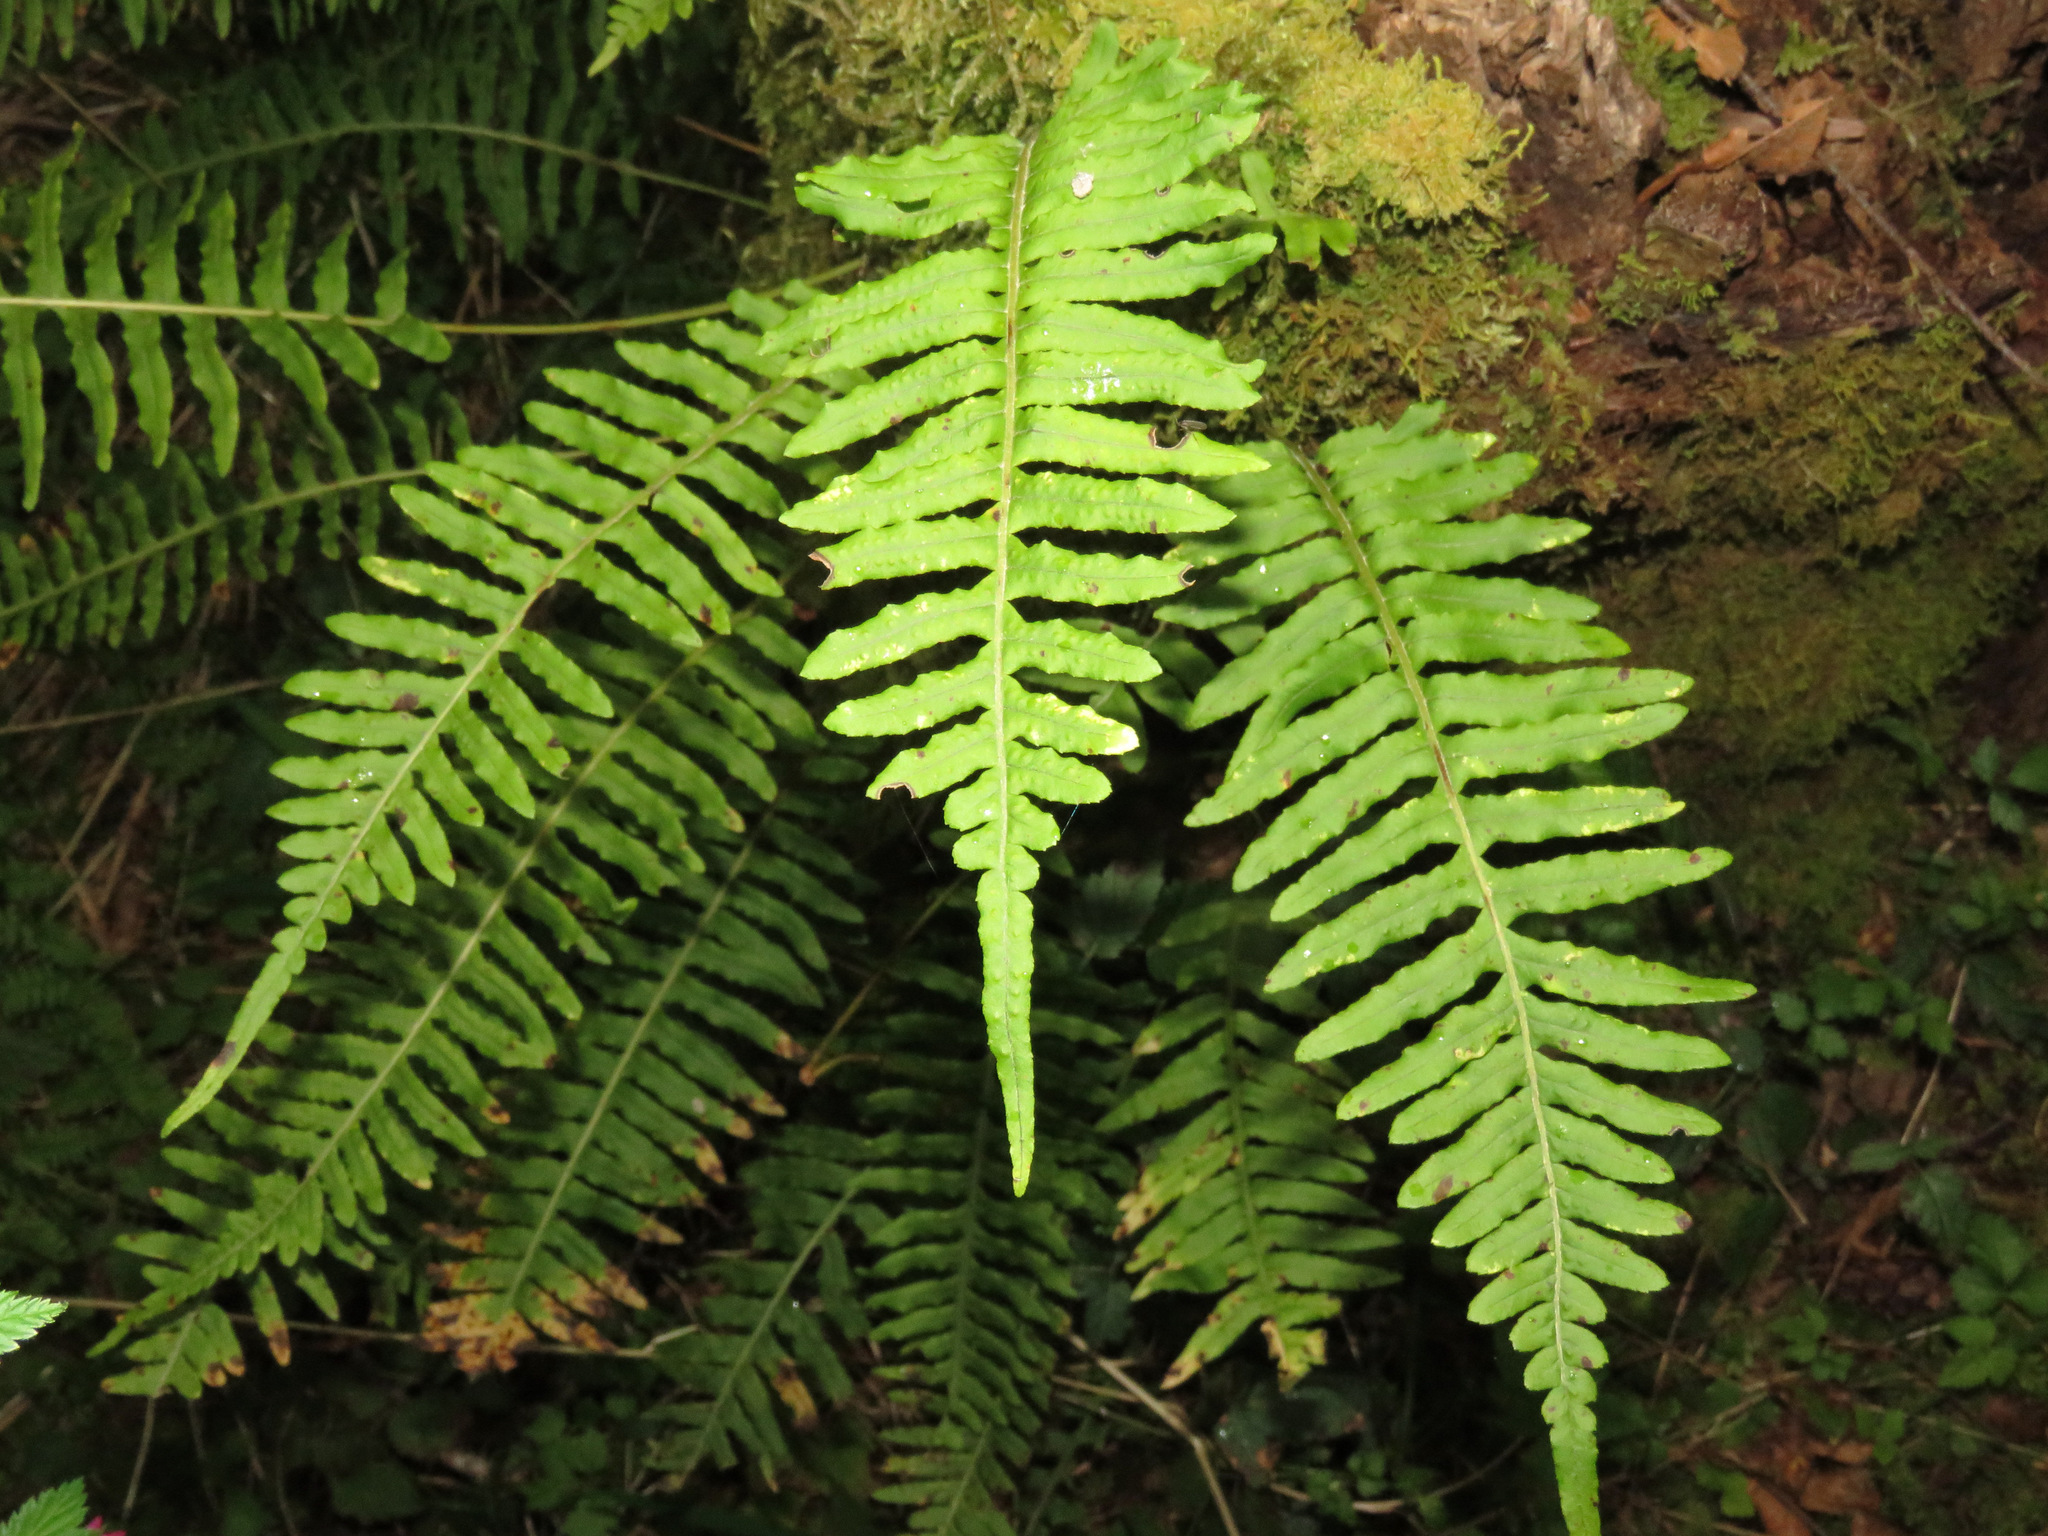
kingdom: Plantae
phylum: Tracheophyta
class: Polypodiopsida
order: Polypodiales
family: Polypodiaceae
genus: Polypodium
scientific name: Polypodium glycyrrhiza
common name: Licorice fern
